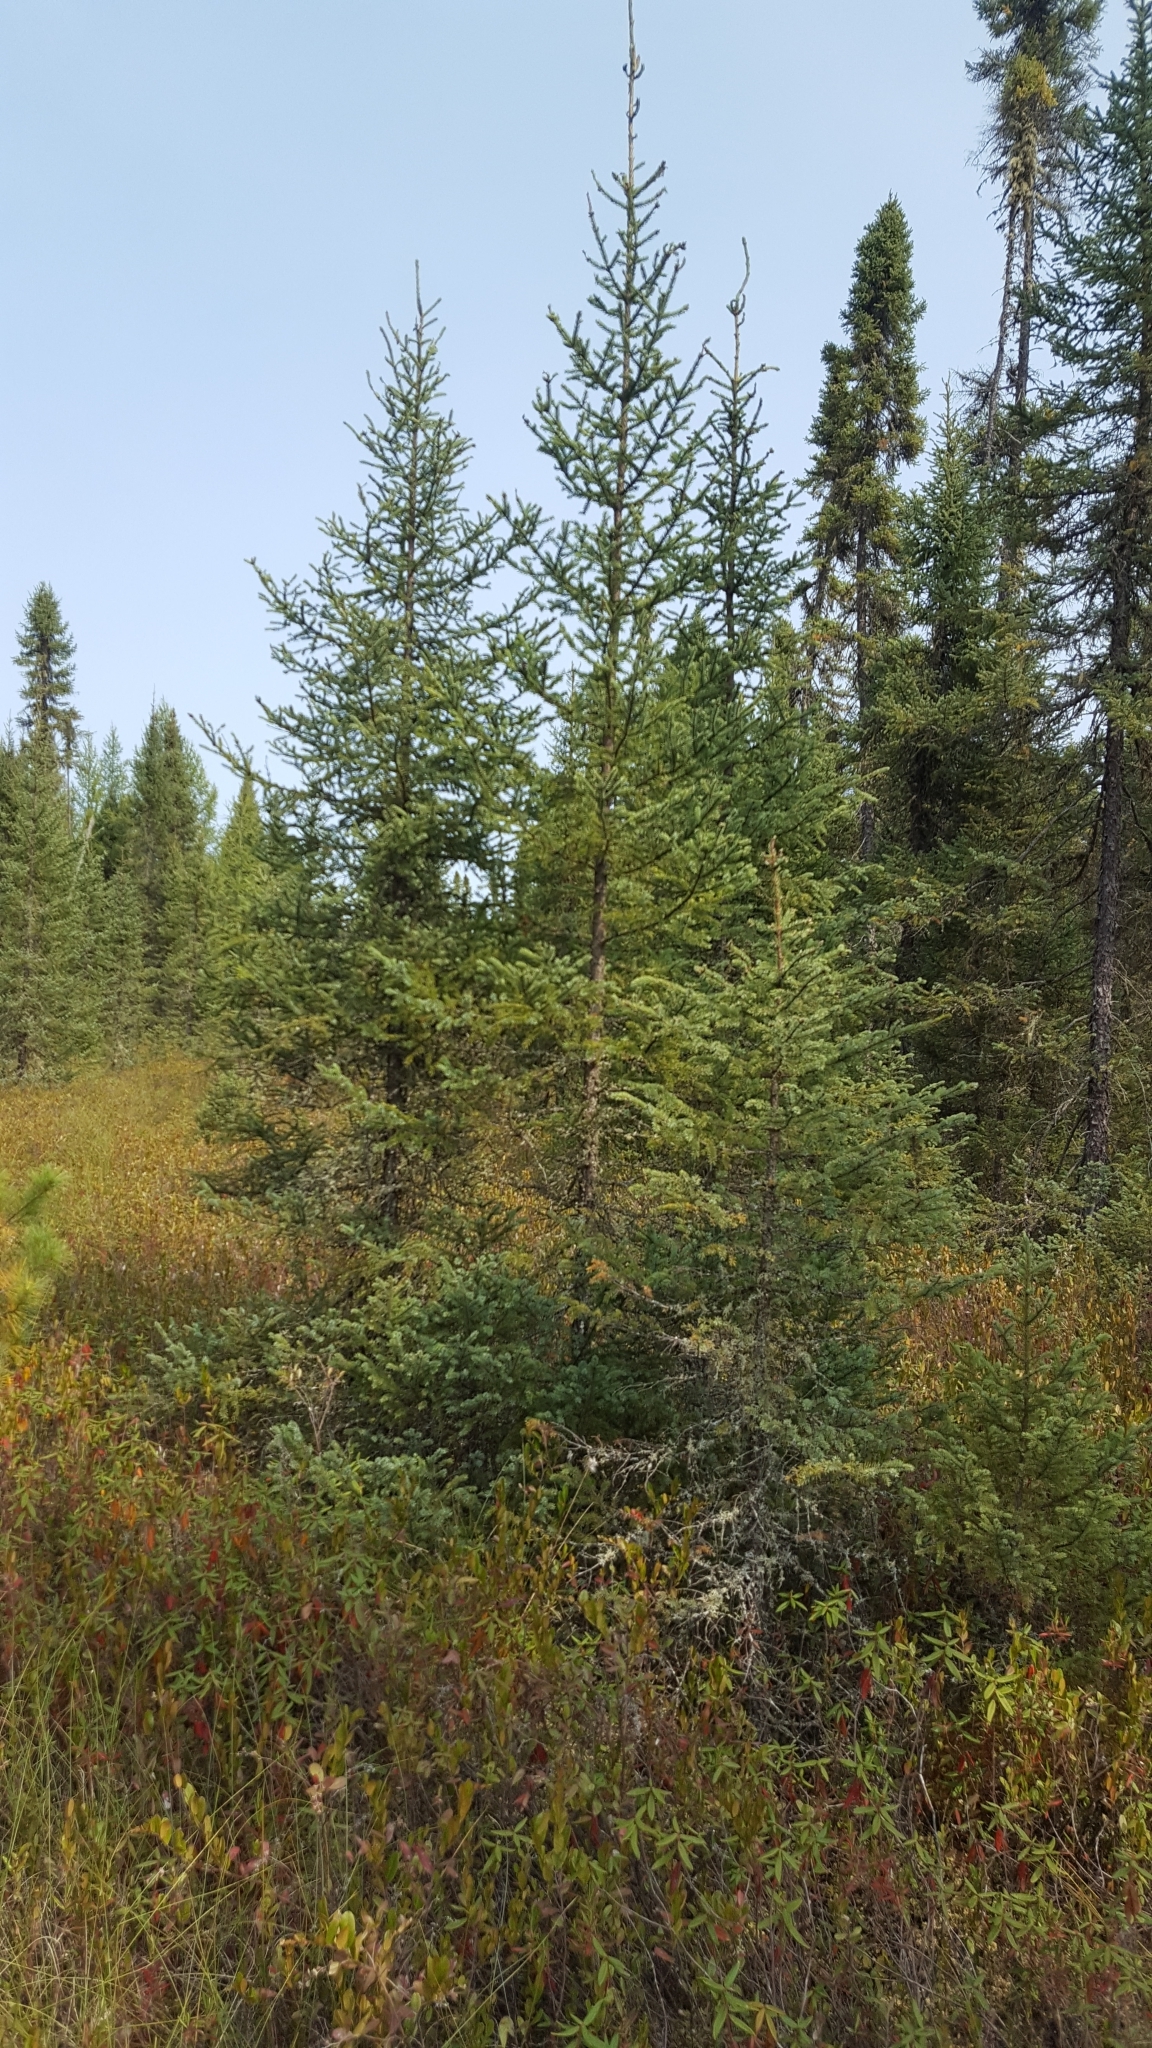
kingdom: Plantae
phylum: Tracheophyta
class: Pinopsida
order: Pinales
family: Pinaceae
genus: Picea
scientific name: Picea mariana
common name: Black spruce
